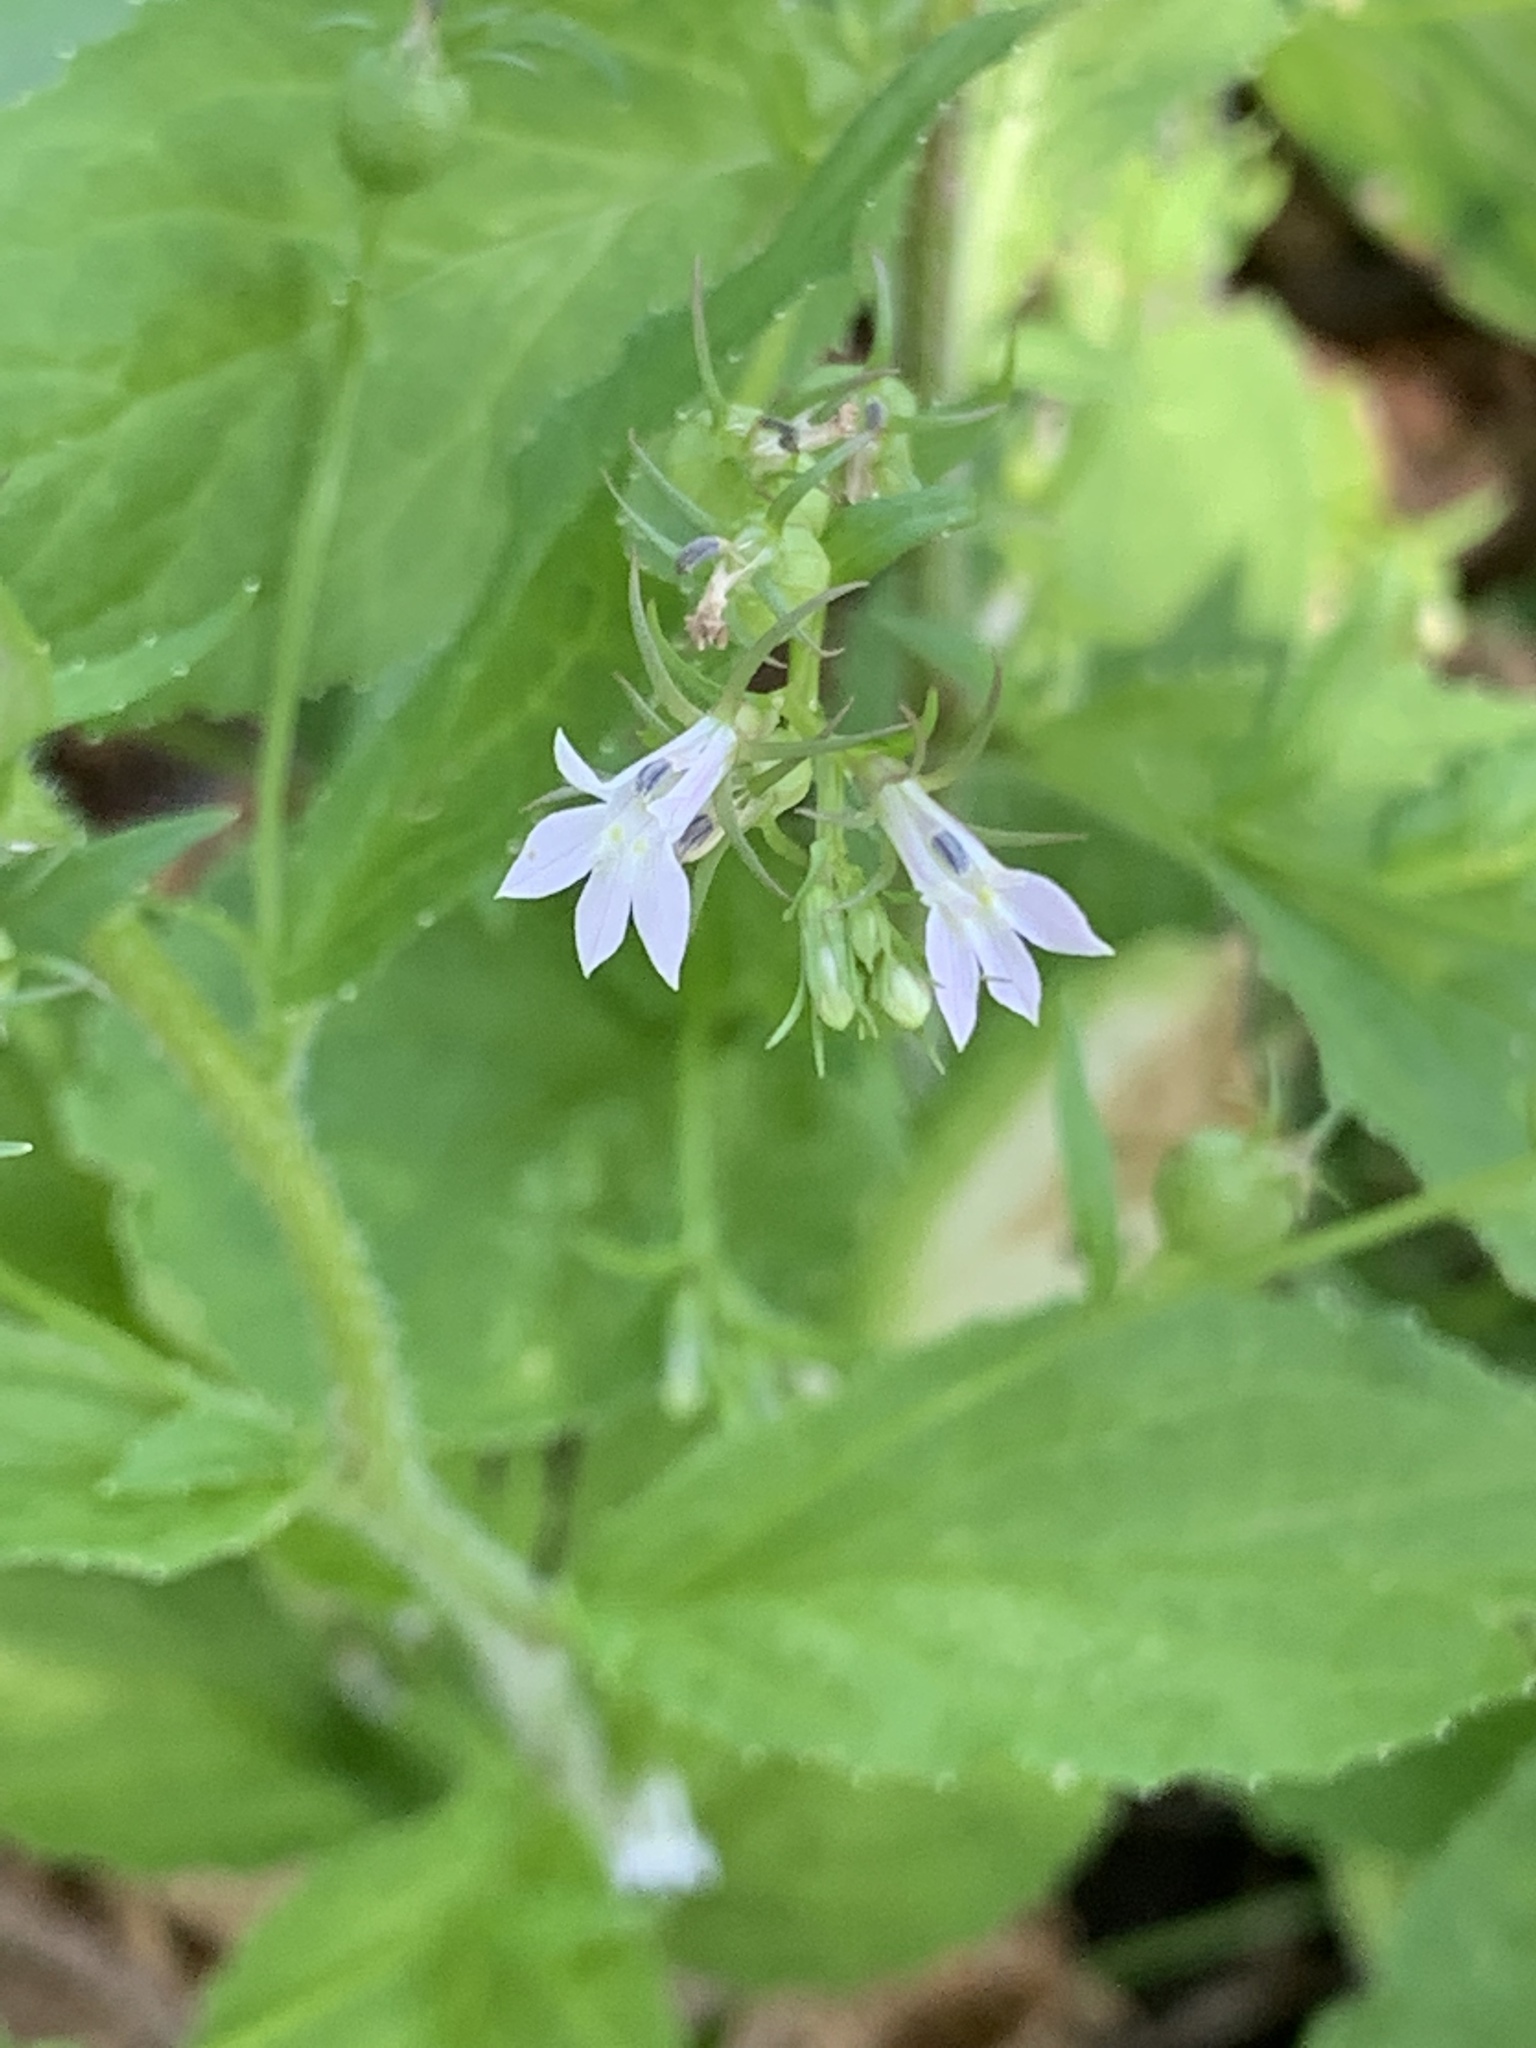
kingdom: Plantae
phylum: Tracheophyta
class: Magnoliopsida
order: Asterales
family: Campanulaceae
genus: Lobelia
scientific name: Lobelia inflata
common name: Indian tobacco
